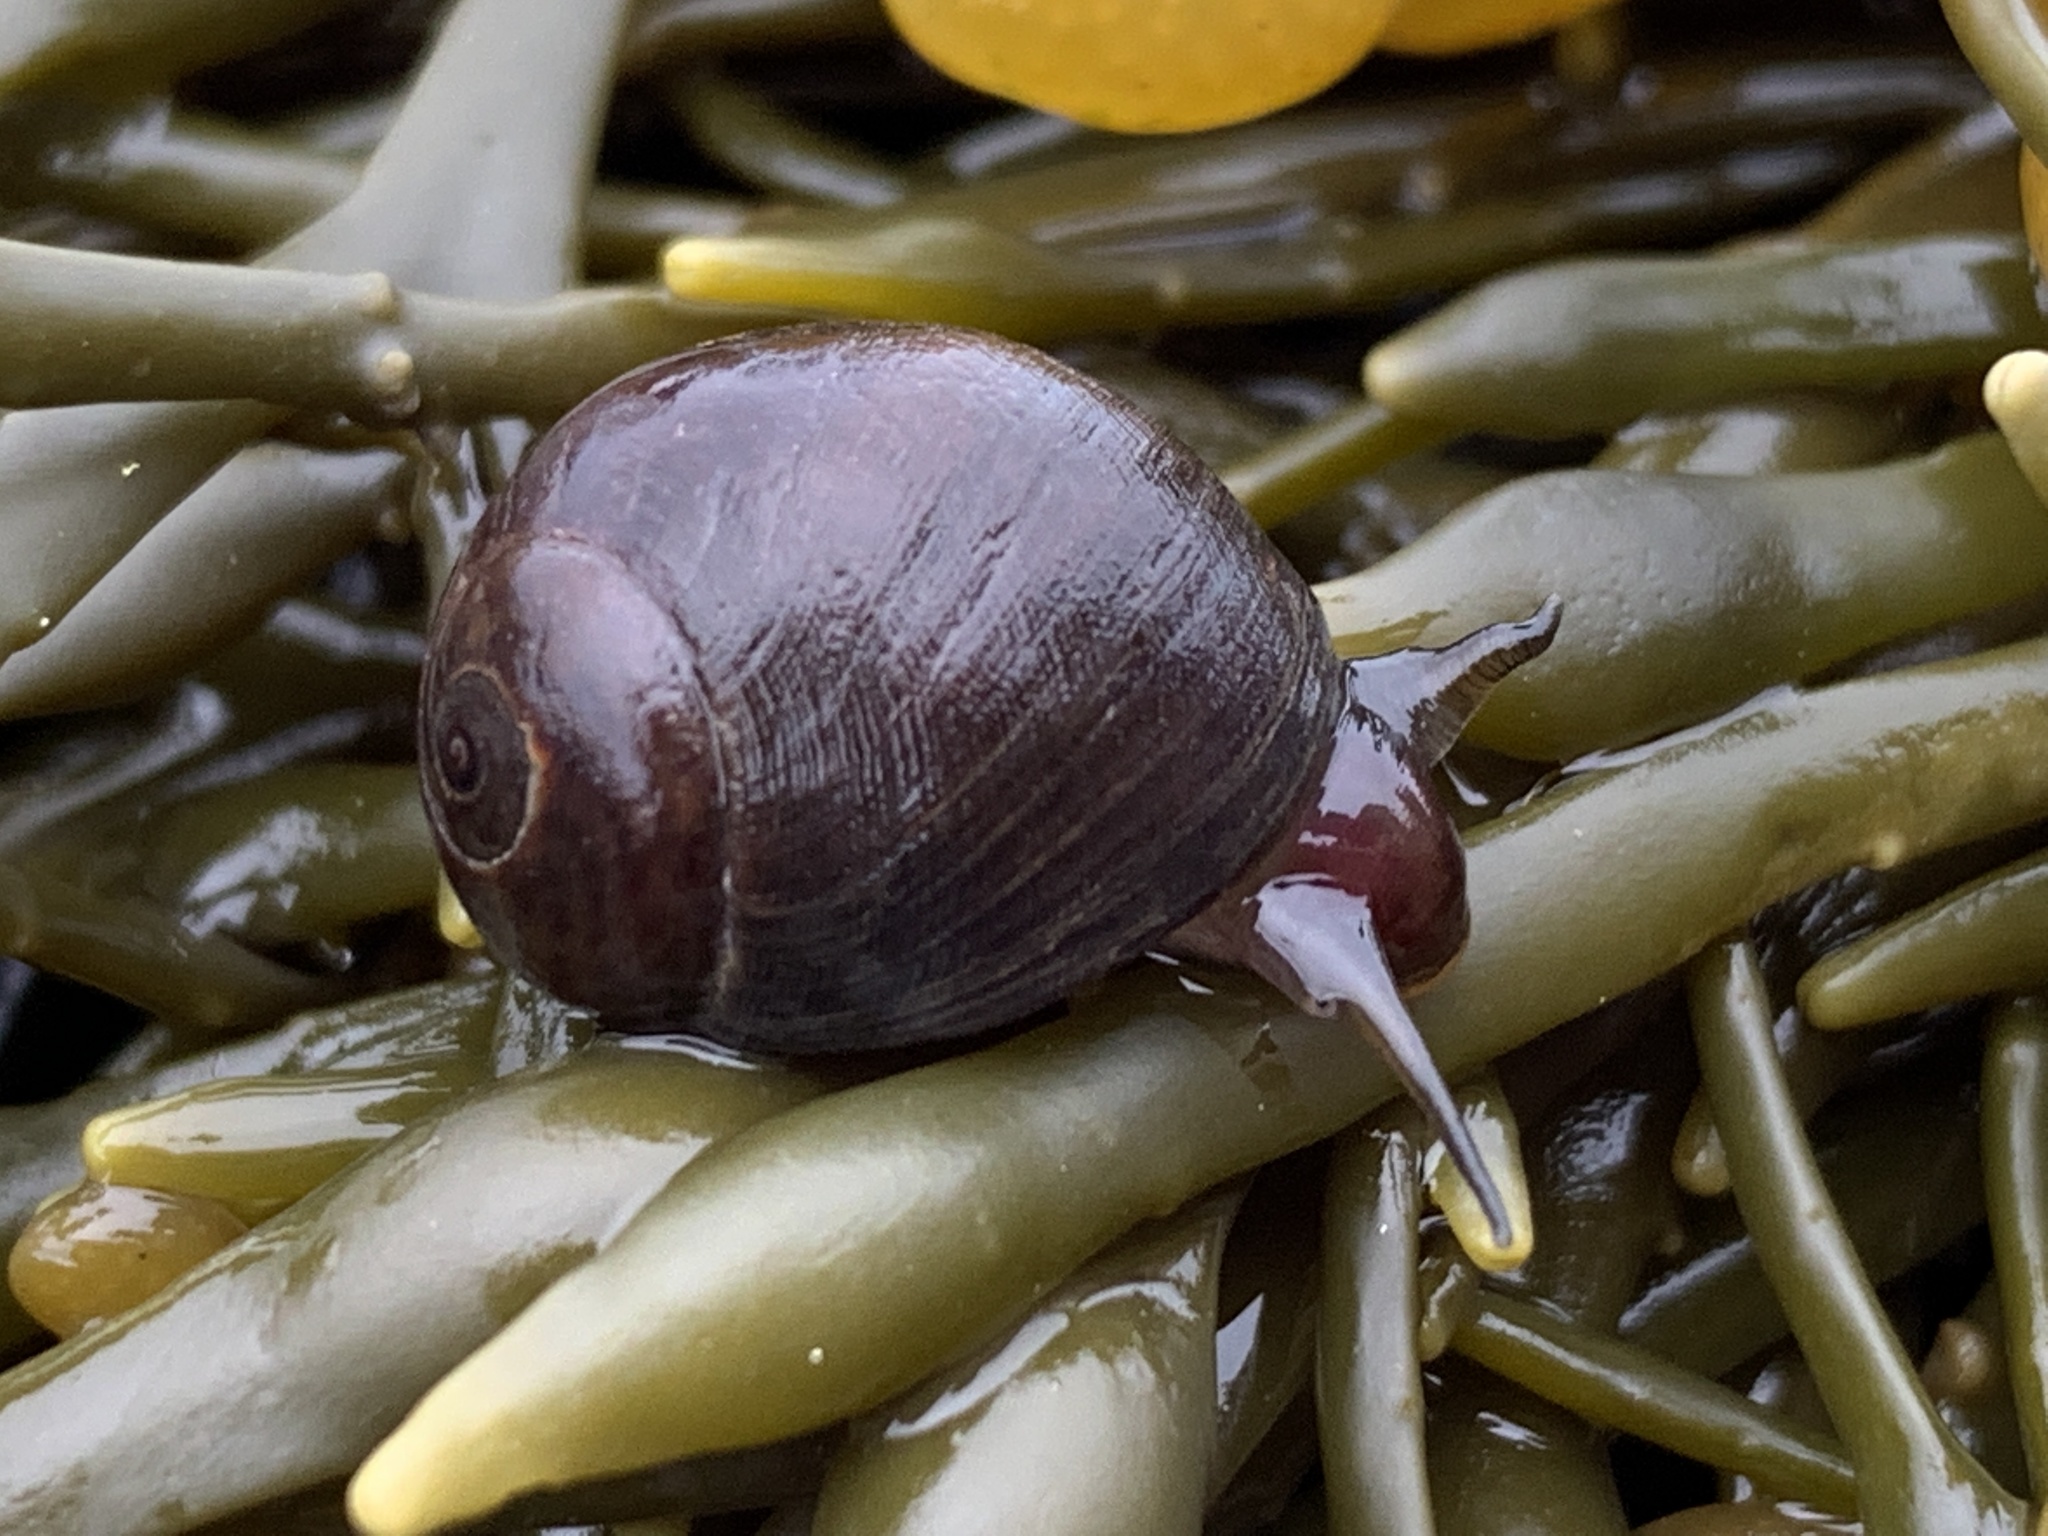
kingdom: Animalia
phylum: Mollusca
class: Gastropoda
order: Littorinimorpha
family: Littorinidae
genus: Littorina
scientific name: Littorina obtusata
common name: Flat periwinkle
